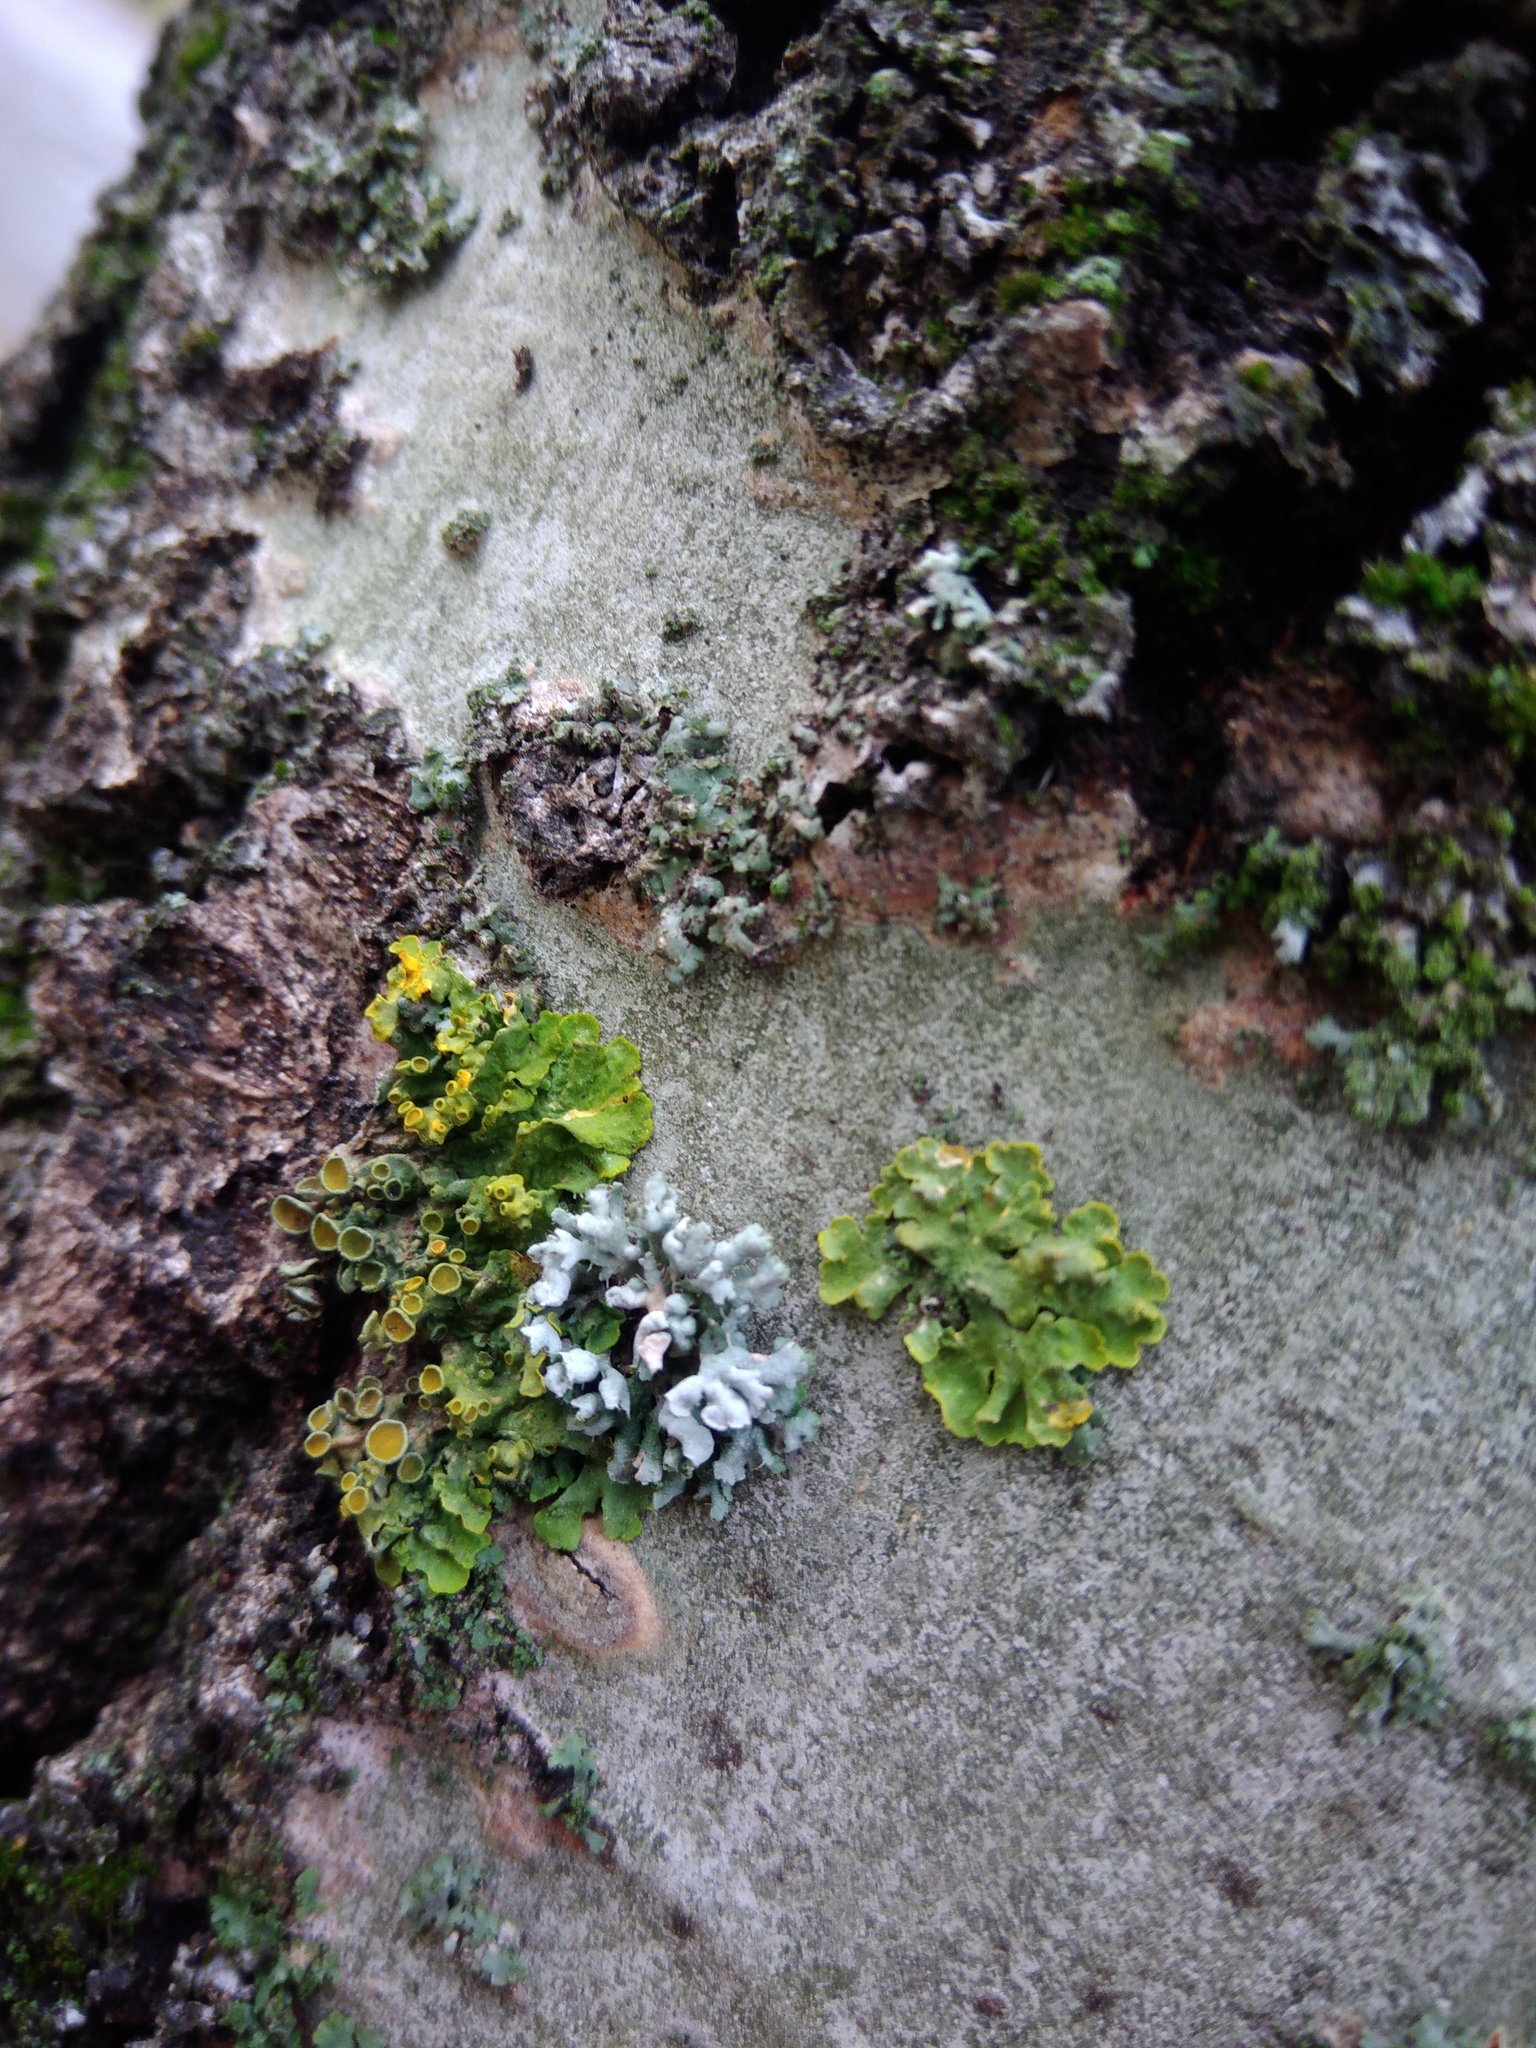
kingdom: Fungi
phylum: Ascomycota
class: Lecanoromycetes
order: Caliciales
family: Physciaceae
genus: Physcia
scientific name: Physcia adscendens
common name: Hooded rosette lichen
